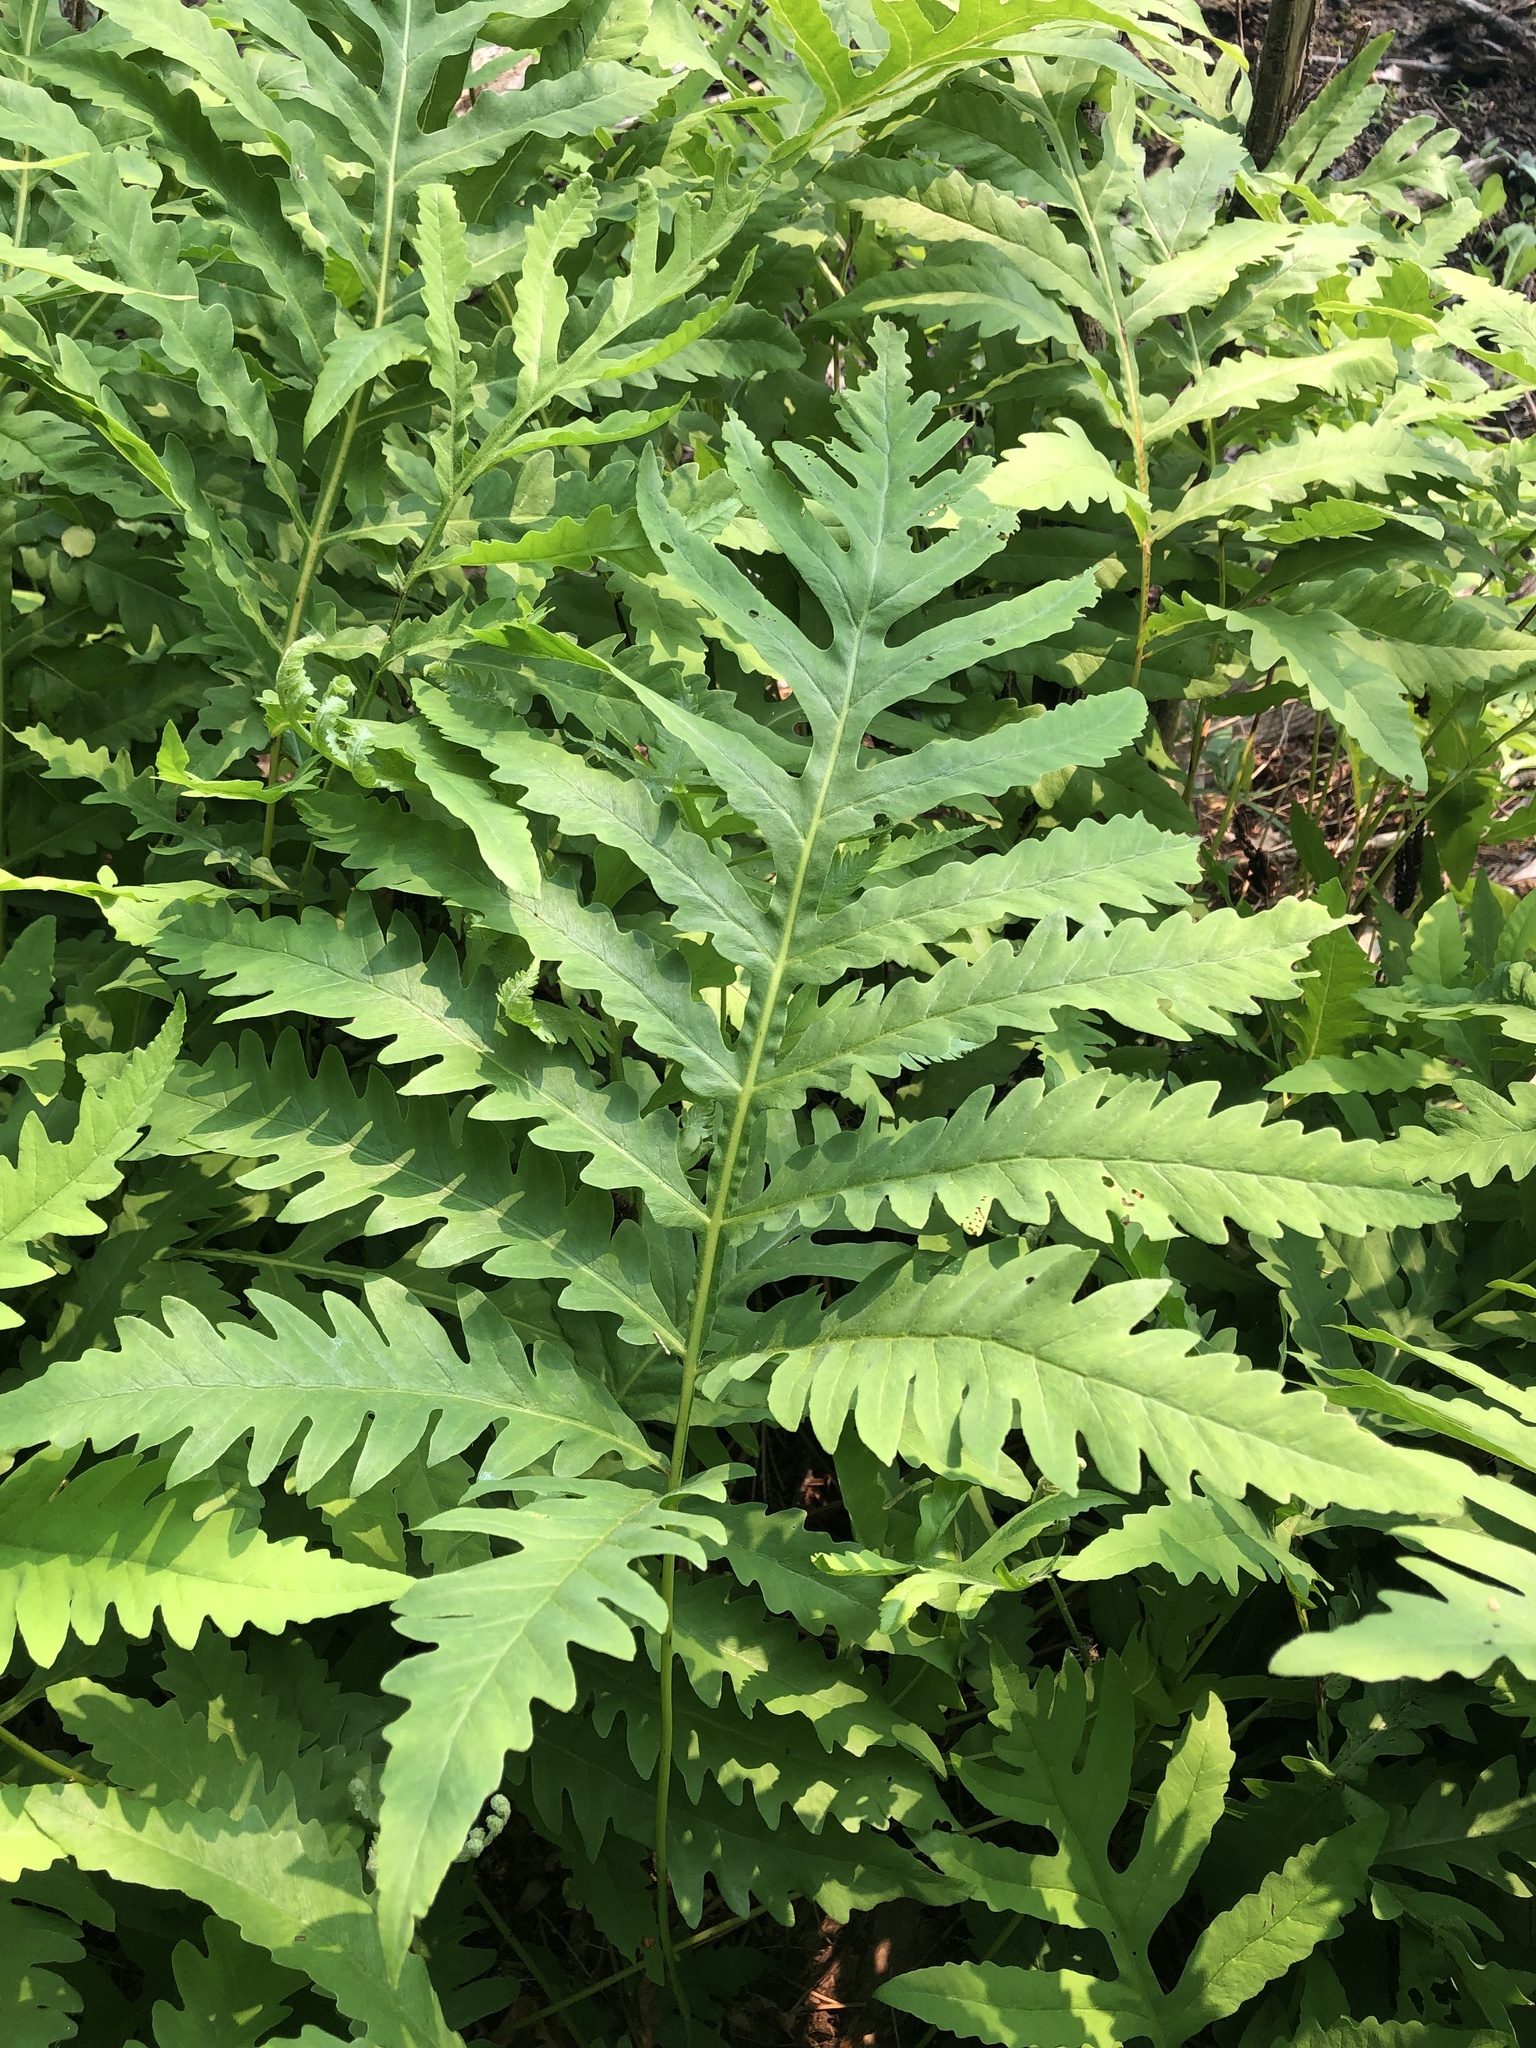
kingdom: Plantae
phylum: Tracheophyta
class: Polypodiopsida
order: Polypodiales
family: Onocleaceae
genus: Onoclea
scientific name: Onoclea sensibilis
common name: Sensitive fern
